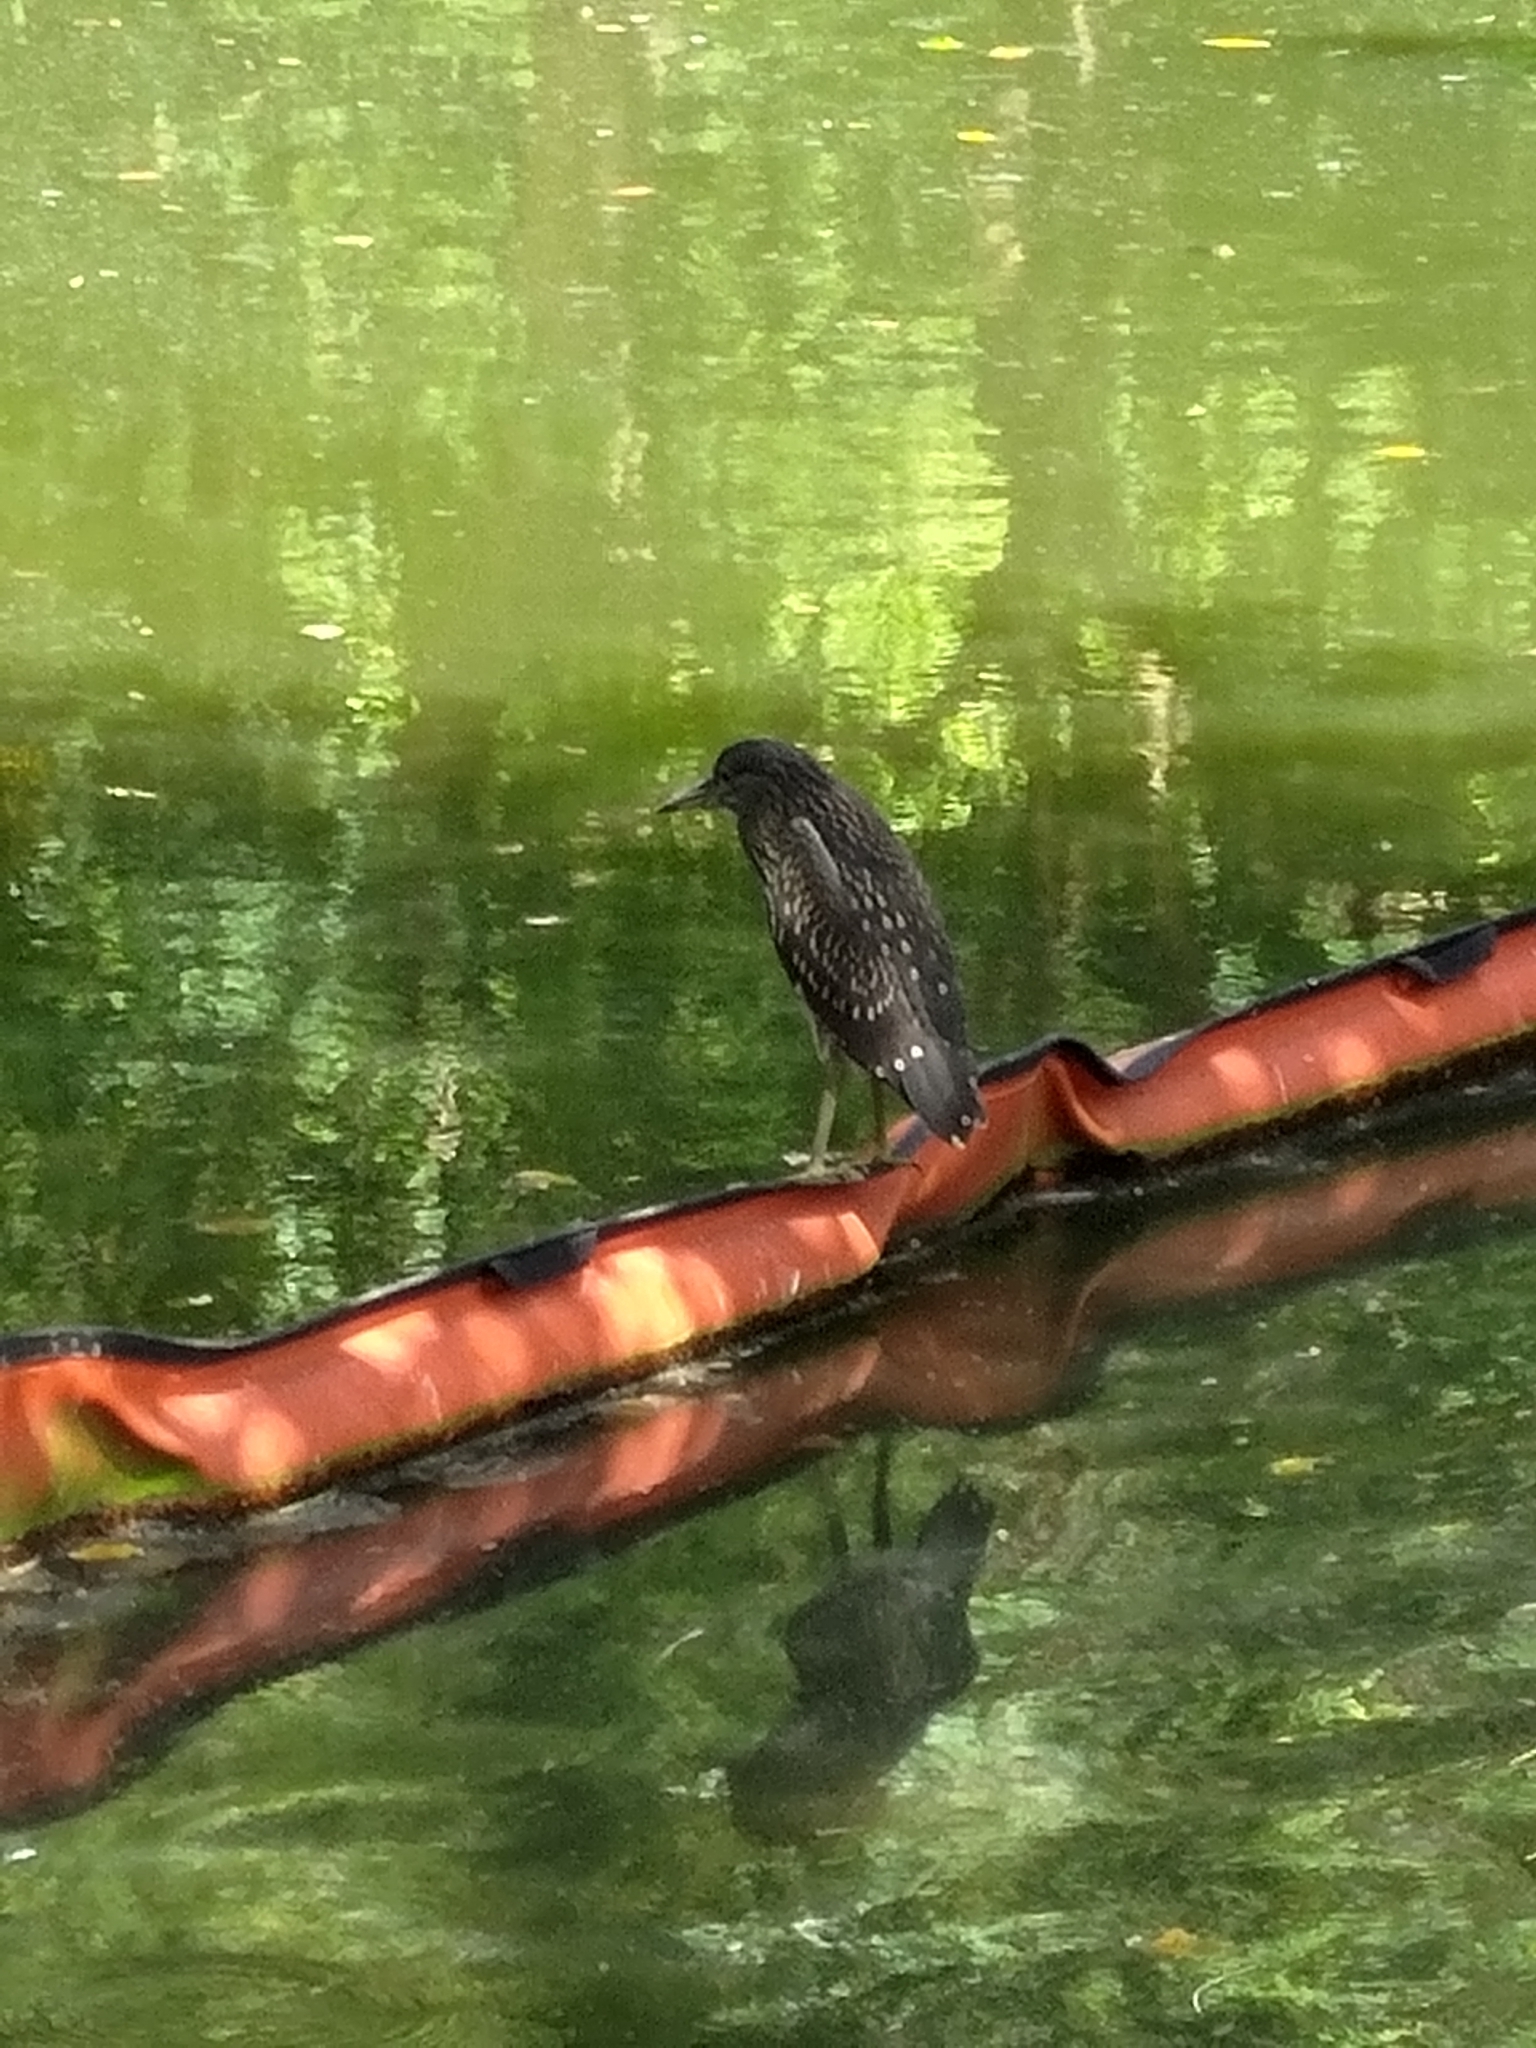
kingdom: Animalia
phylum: Chordata
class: Aves
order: Pelecaniformes
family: Ardeidae
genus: Nycticorax
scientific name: Nycticorax nycticorax
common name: Black-crowned night heron
